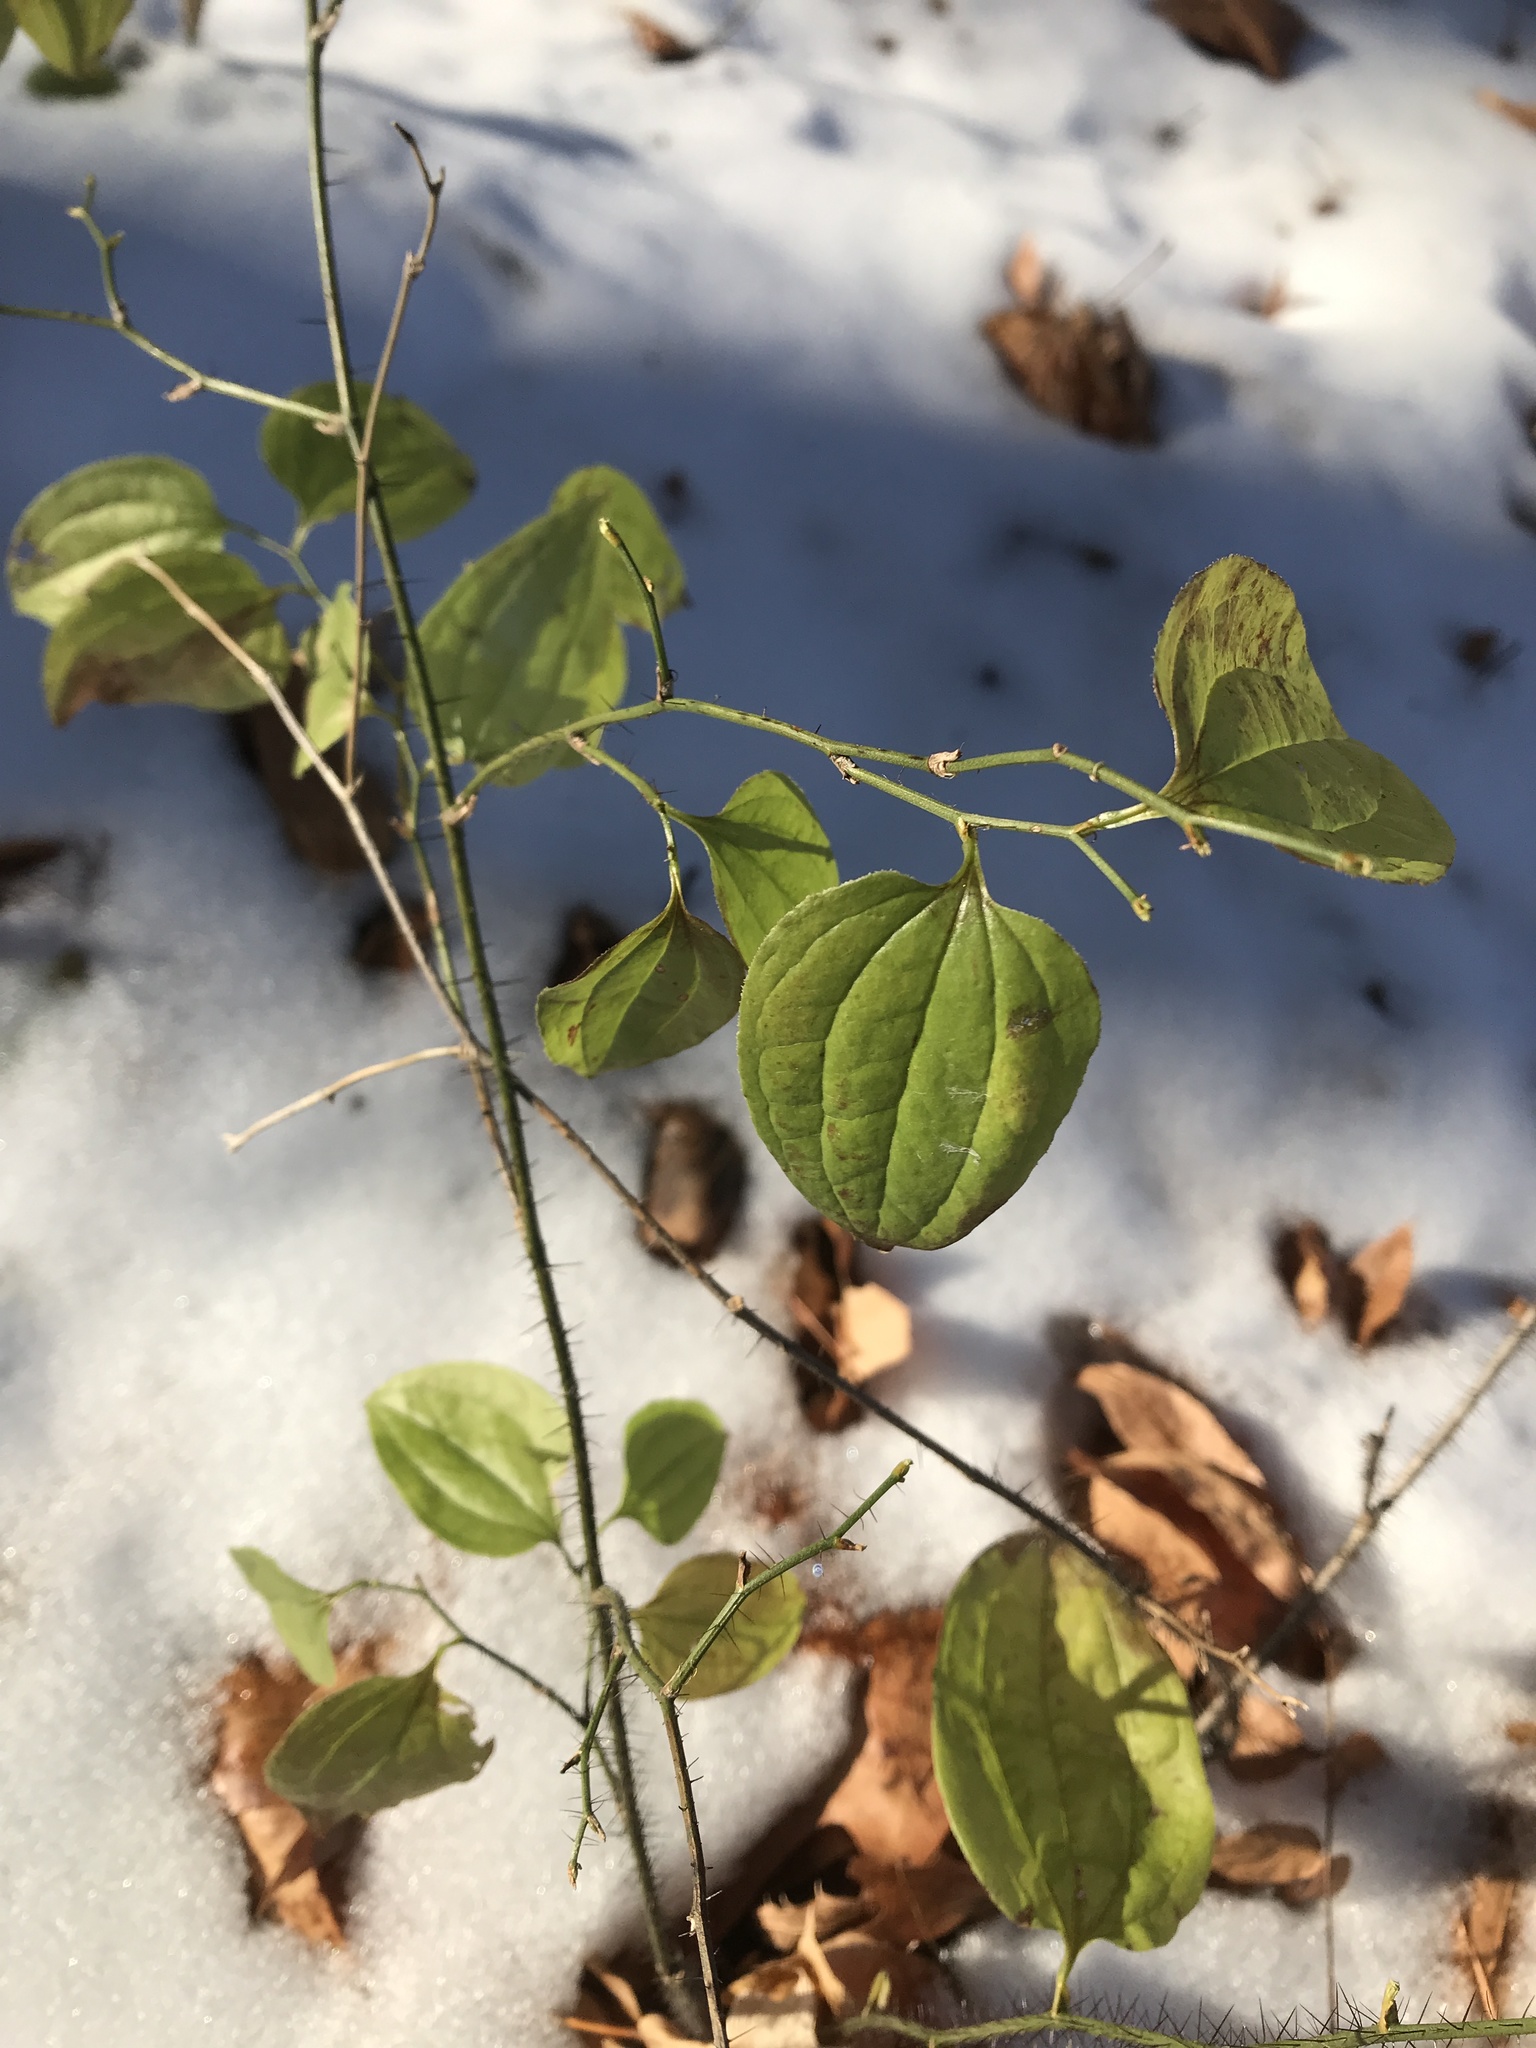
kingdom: Plantae
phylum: Tracheophyta
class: Liliopsida
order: Liliales
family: Smilacaceae
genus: Smilax
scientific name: Smilax tamnoides
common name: Hellfetter
